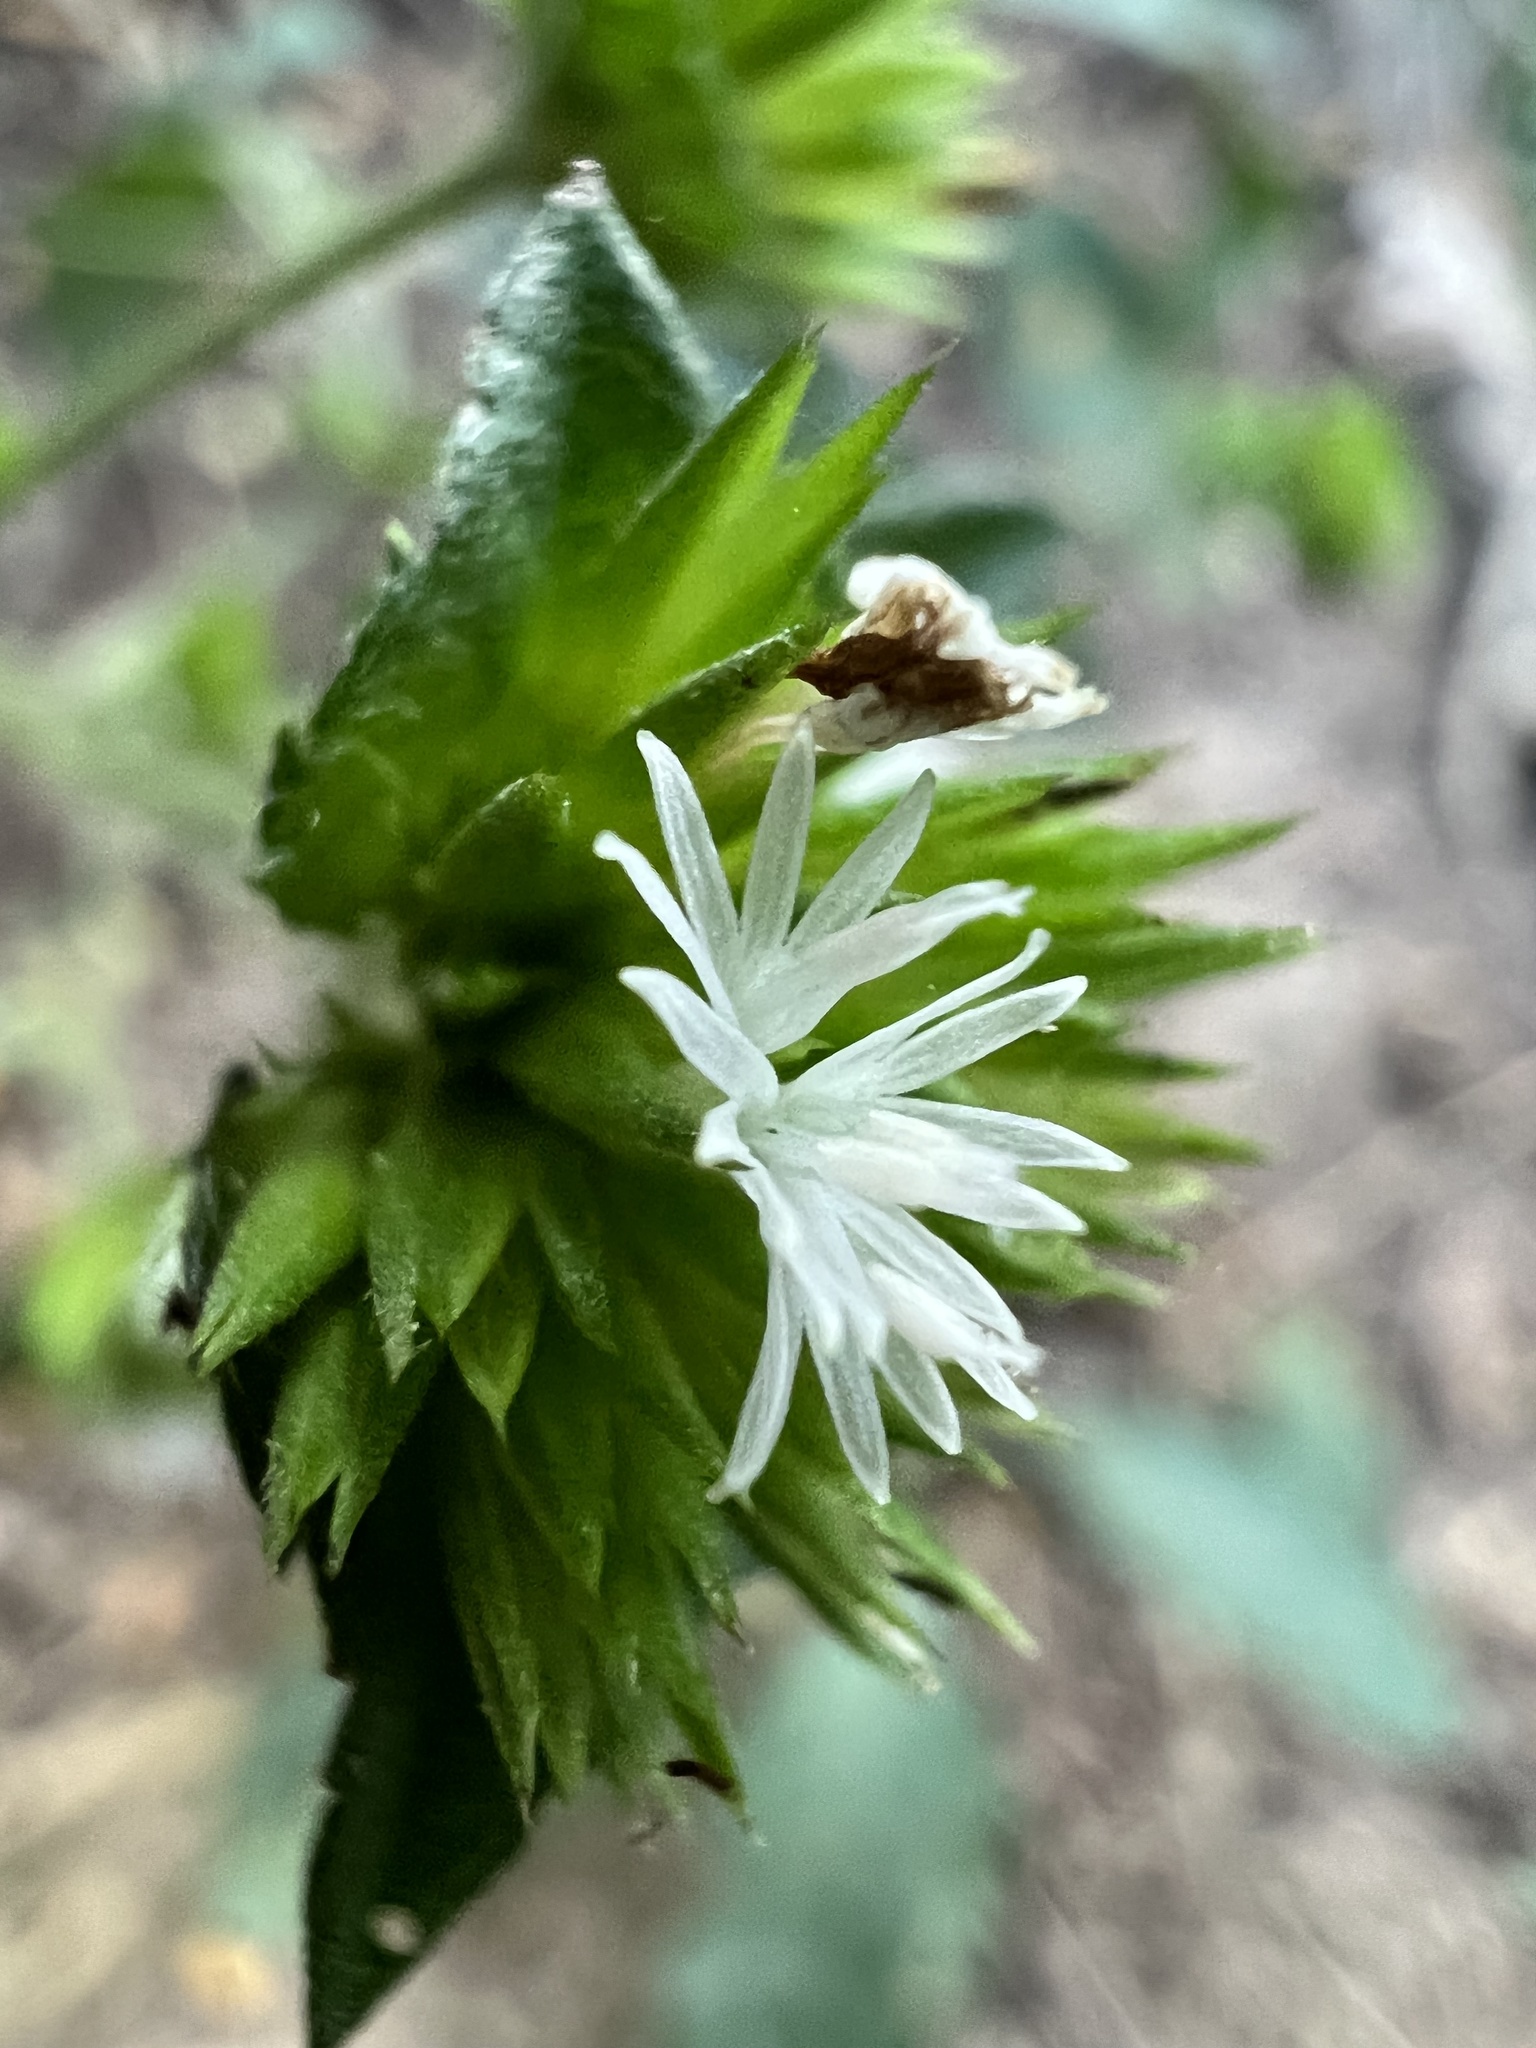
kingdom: Plantae
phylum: Tracheophyta
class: Magnoliopsida
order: Asterales
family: Asteraceae
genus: Elephantopus
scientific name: Elephantopus mollis
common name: Soft elephantsfoot
